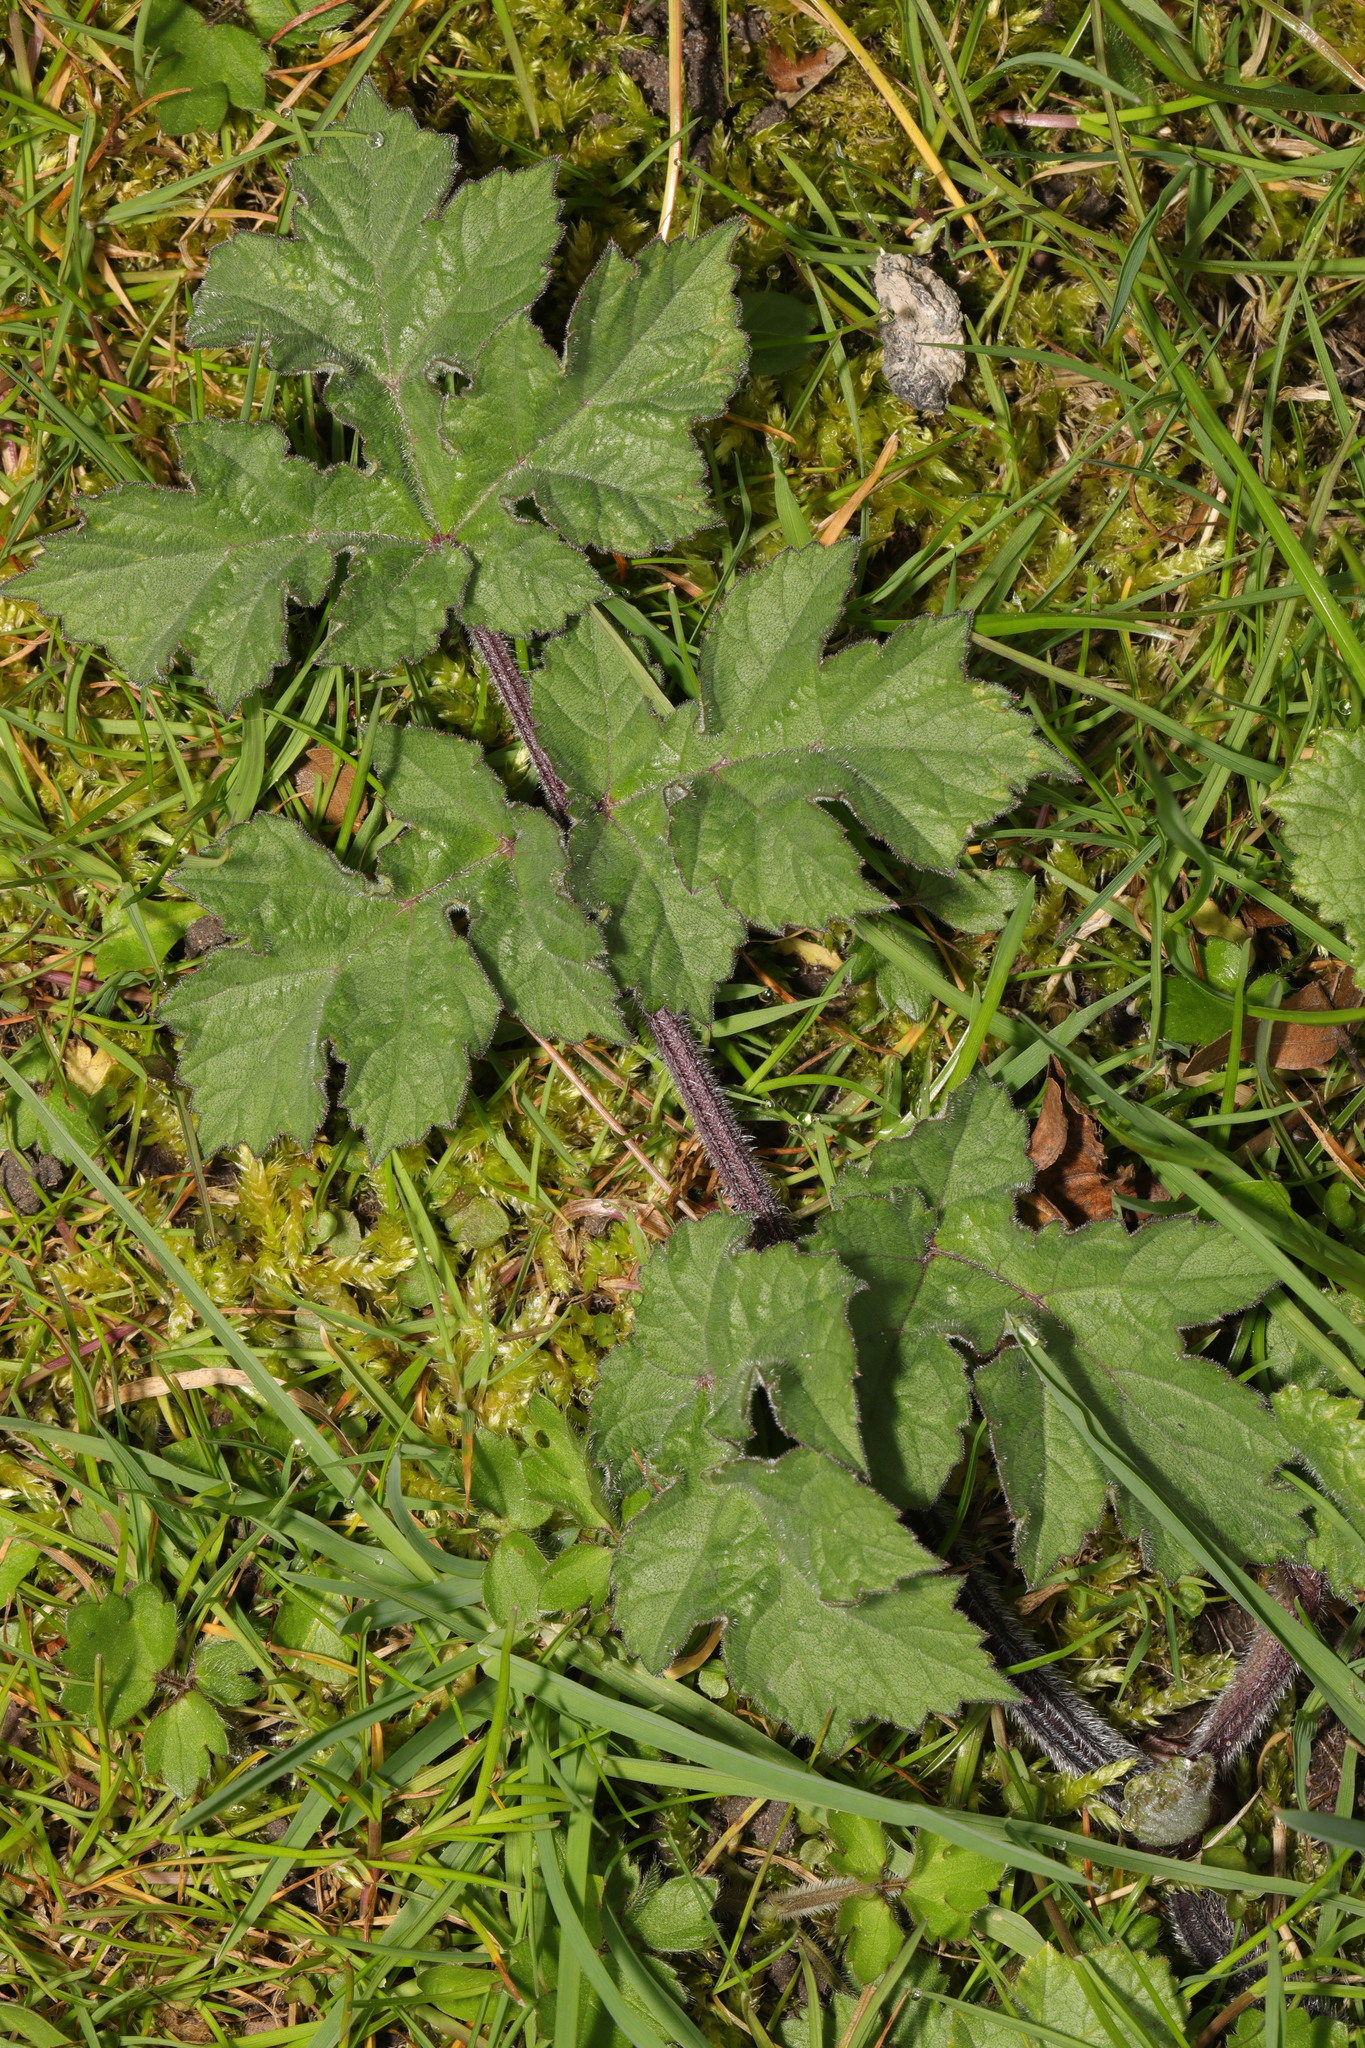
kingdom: Plantae
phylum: Tracheophyta
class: Magnoliopsida
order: Apiales
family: Apiaceae
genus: Heracleum
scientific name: Heracleum sphondylium
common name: Hogweed
